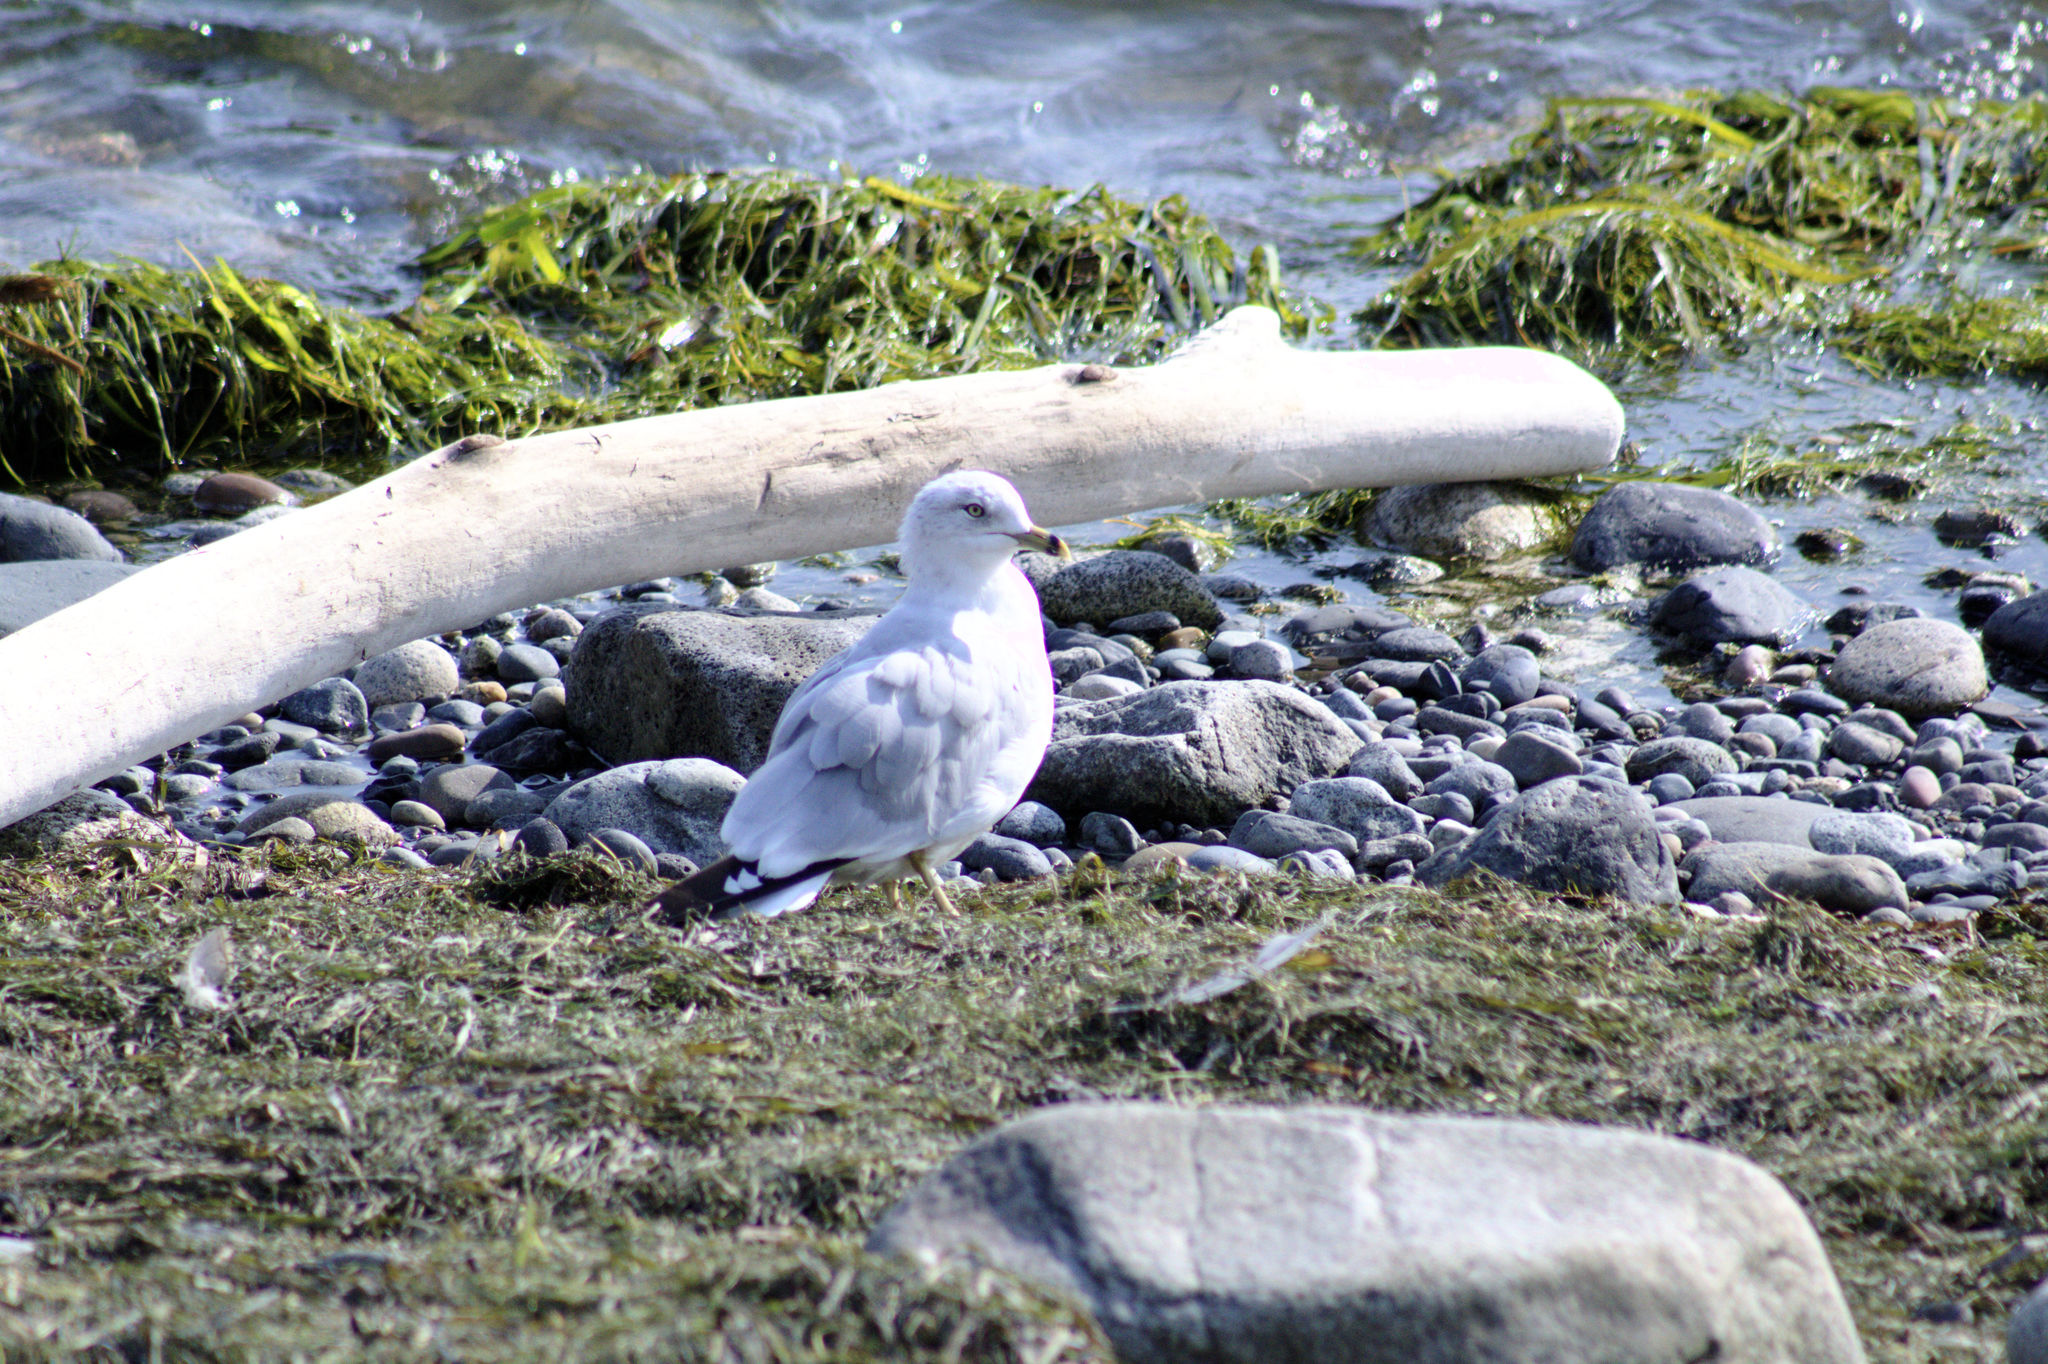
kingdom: Animalia
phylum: Chordata
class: Aves
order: Charadriiformes
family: Laridae
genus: Larus
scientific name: Larus delawarensis
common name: Ring-billed gull
